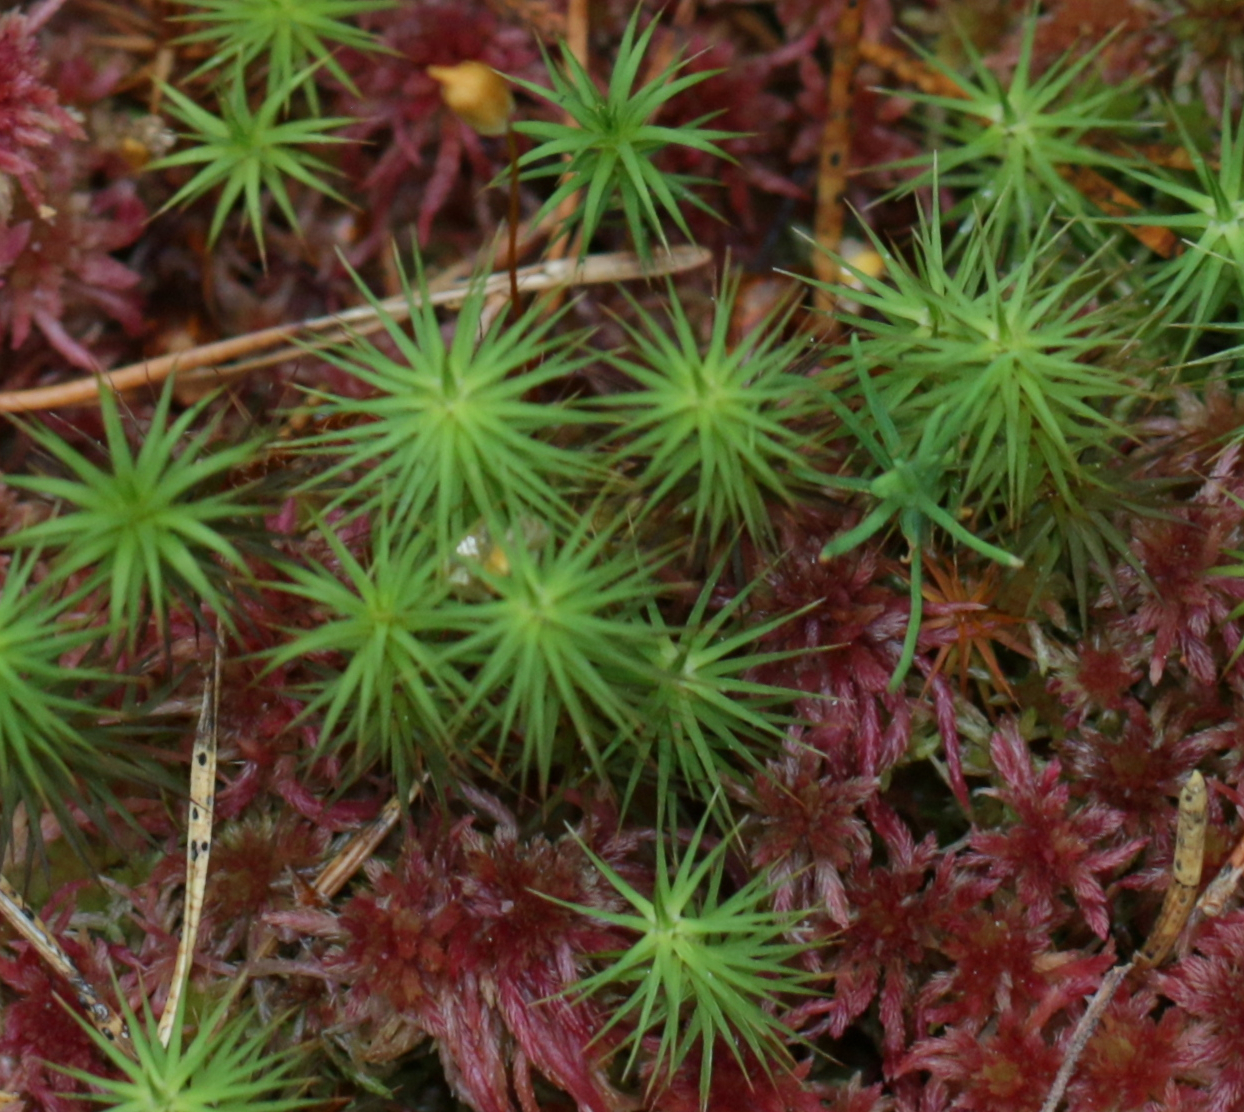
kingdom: Plantae
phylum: Bryophyta
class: Polytrichopsida
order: Polytrichales
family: Polytrichaceae
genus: Polytrichum
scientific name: Polytrichum commune
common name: Common haircap
